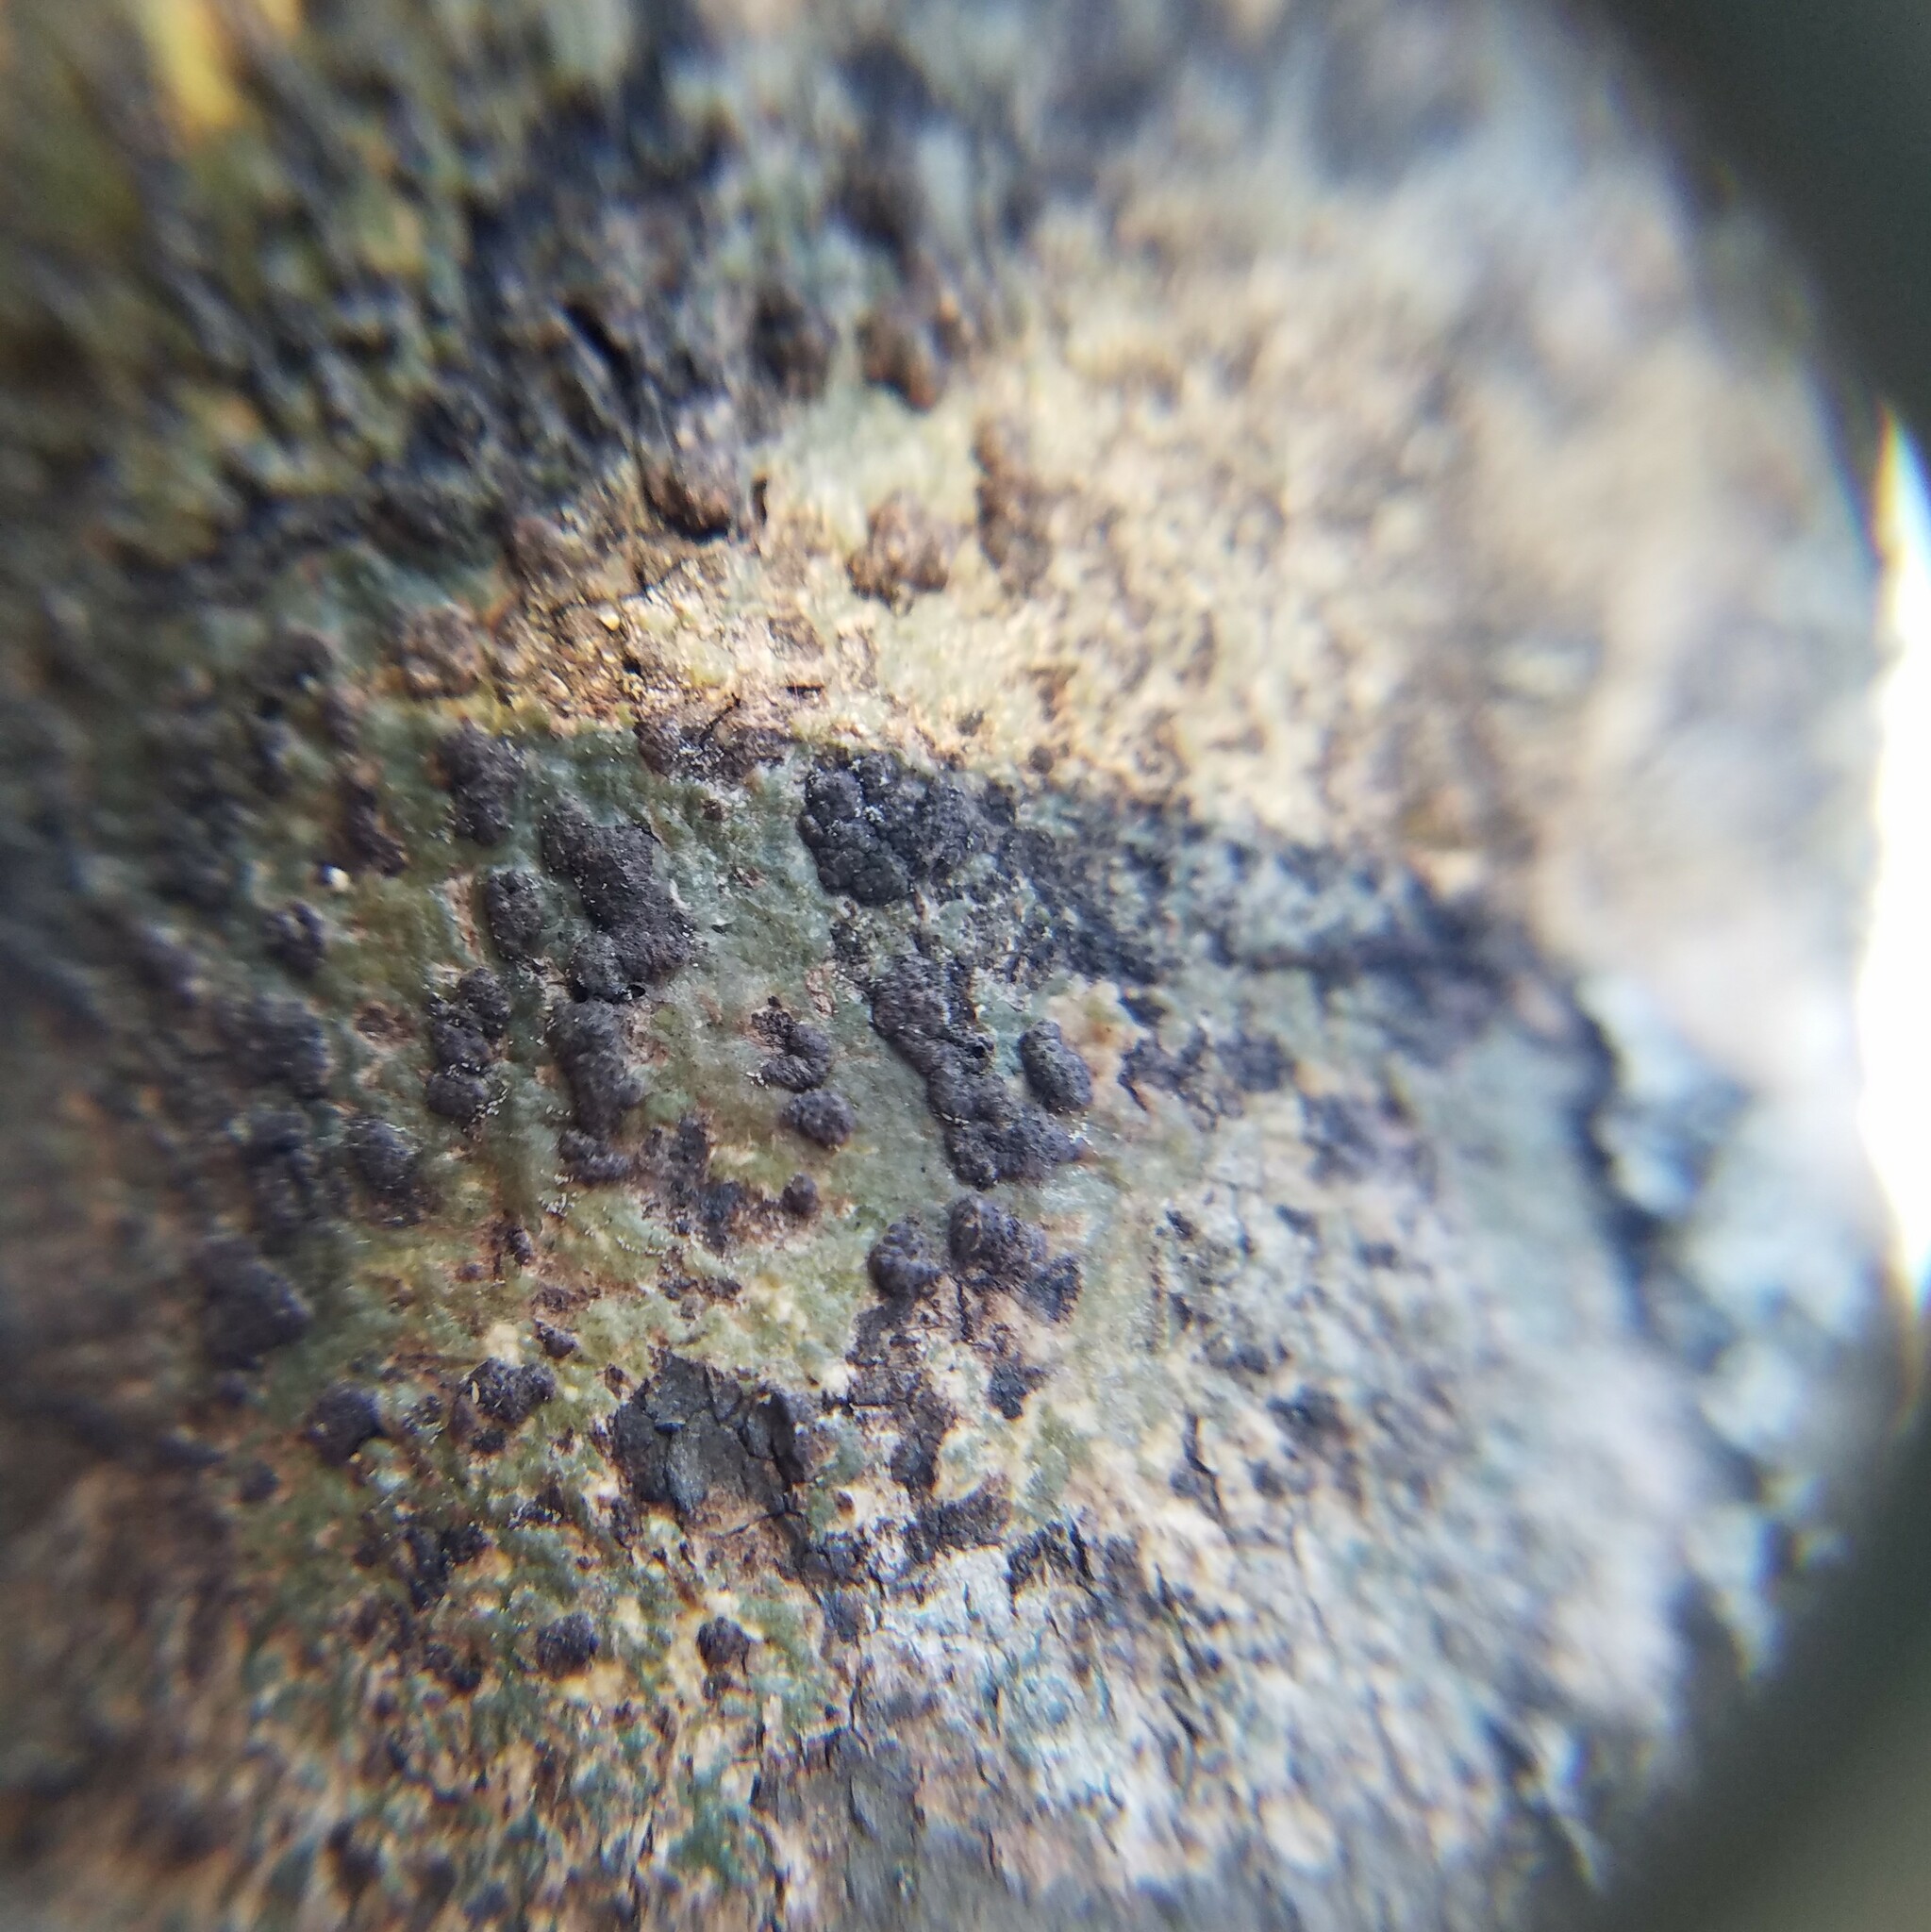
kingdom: Fungi
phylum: Ascomycota
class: Dothideomycetes
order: Trypetheliales
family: Trypetheliaceae
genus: Bathelium
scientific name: Bathelium carolinianum
